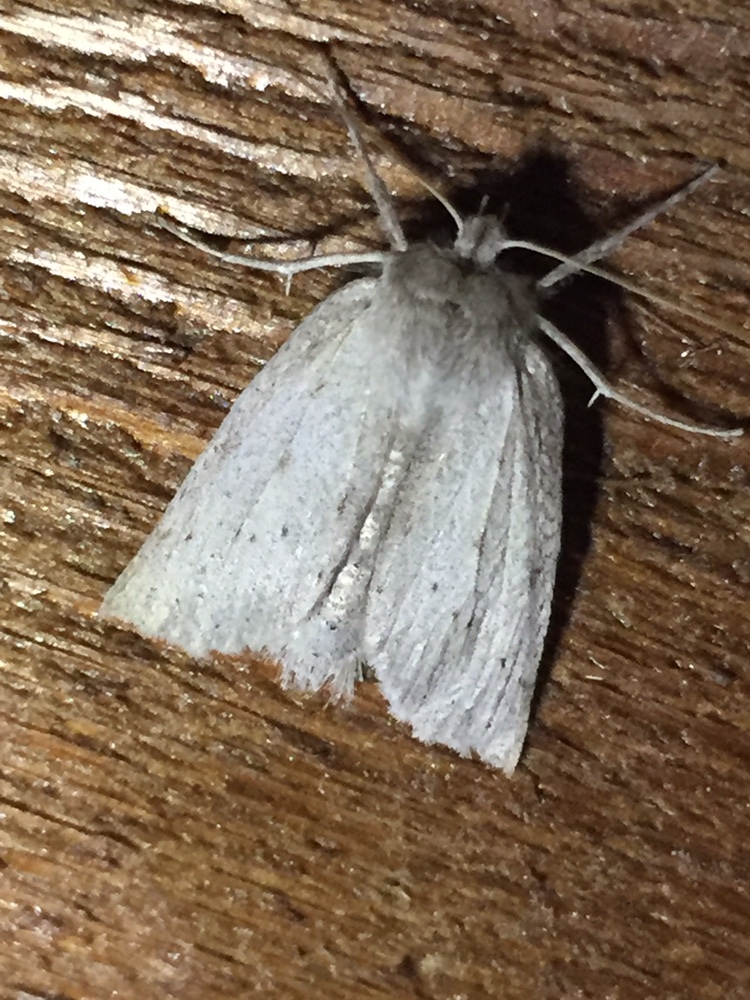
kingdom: Animalia
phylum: Arthropoda
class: Insecta
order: Lepidoptera
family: Geometridae
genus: Declana
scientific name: Declana leptomera
